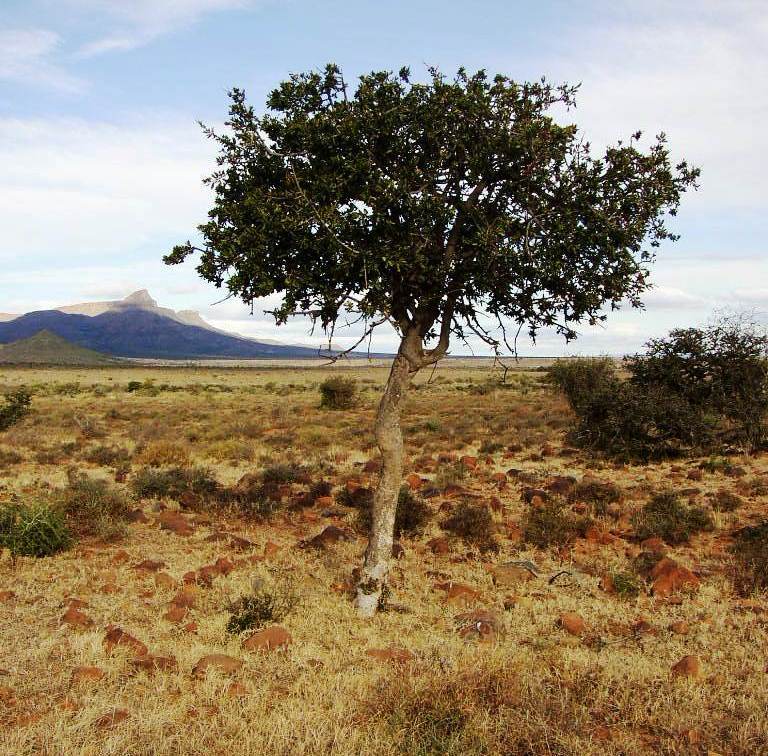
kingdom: Plantae
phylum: Tracheophyta
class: Magnoliopsida
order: Sapindales
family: Sapindaceae
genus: Pappea
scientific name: Pappea capensis
